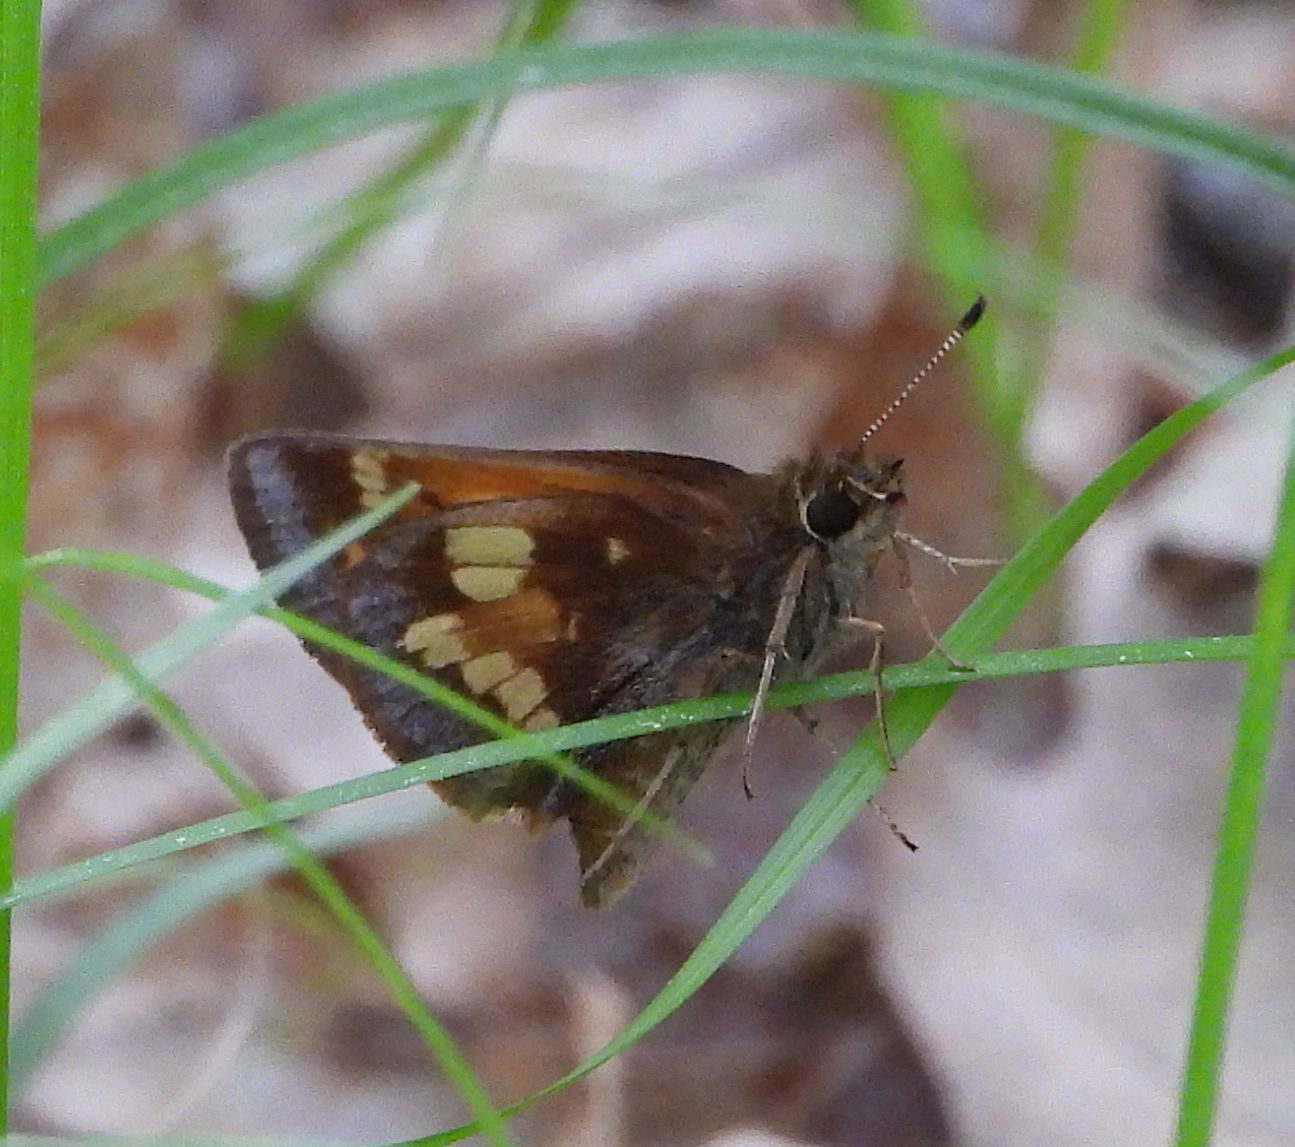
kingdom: Animalia
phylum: Arthropoda
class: Insecta
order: Lepidoptera
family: Hesperiidae
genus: Lon
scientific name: Lon hobomok
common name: Hobomok skipper
